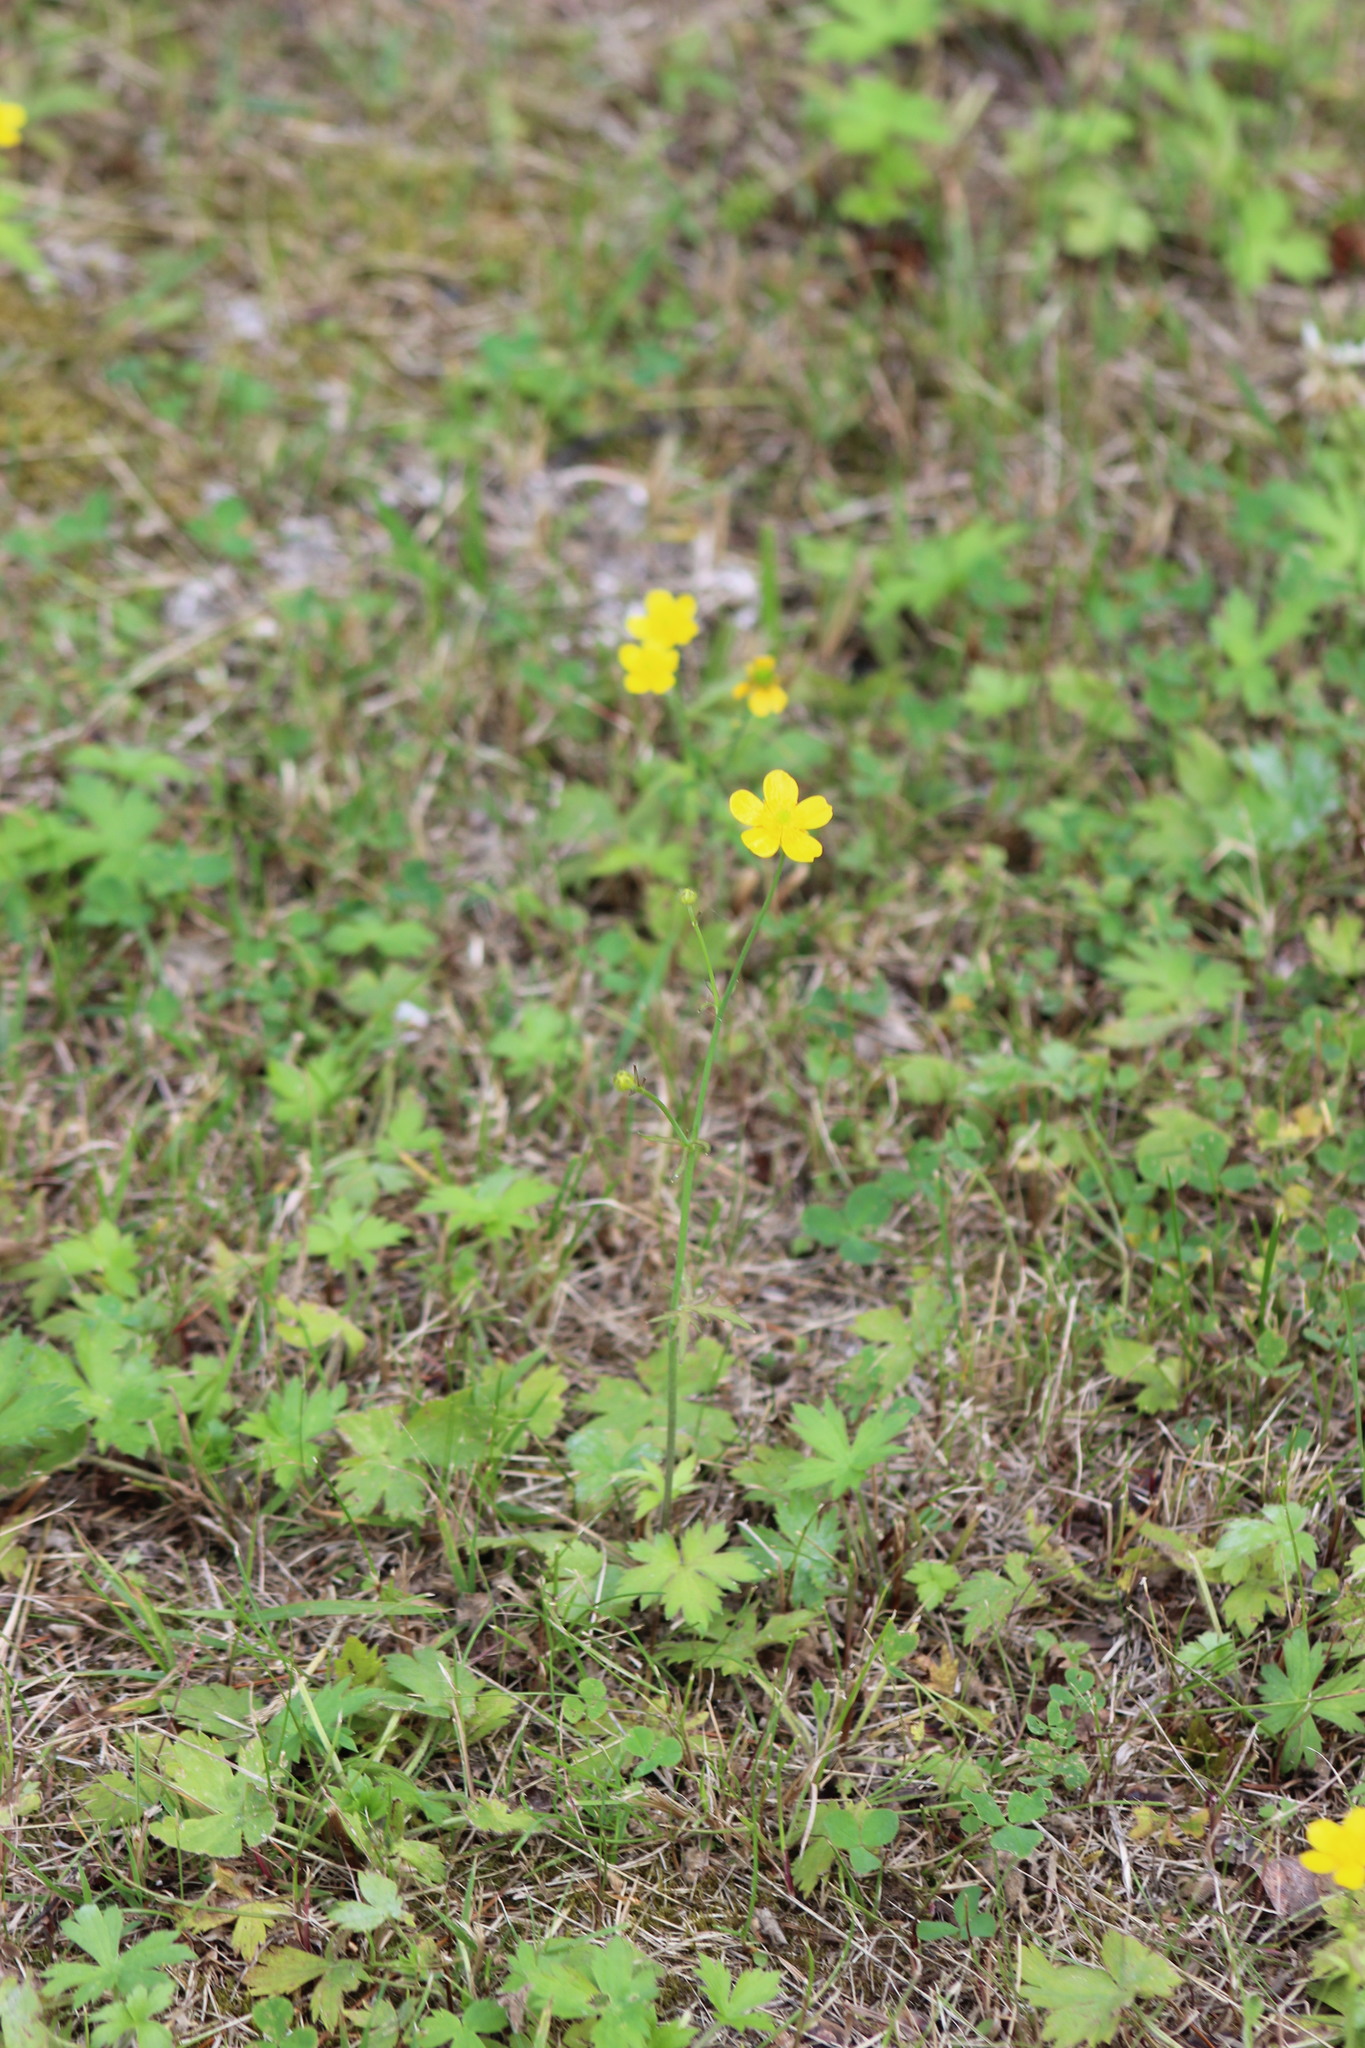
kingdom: Plantae
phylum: Tracheophyta
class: Magnoliopsida
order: Ranunculales
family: Ranunculaceae
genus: Ranunculus
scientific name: Ranunculus propinquus
